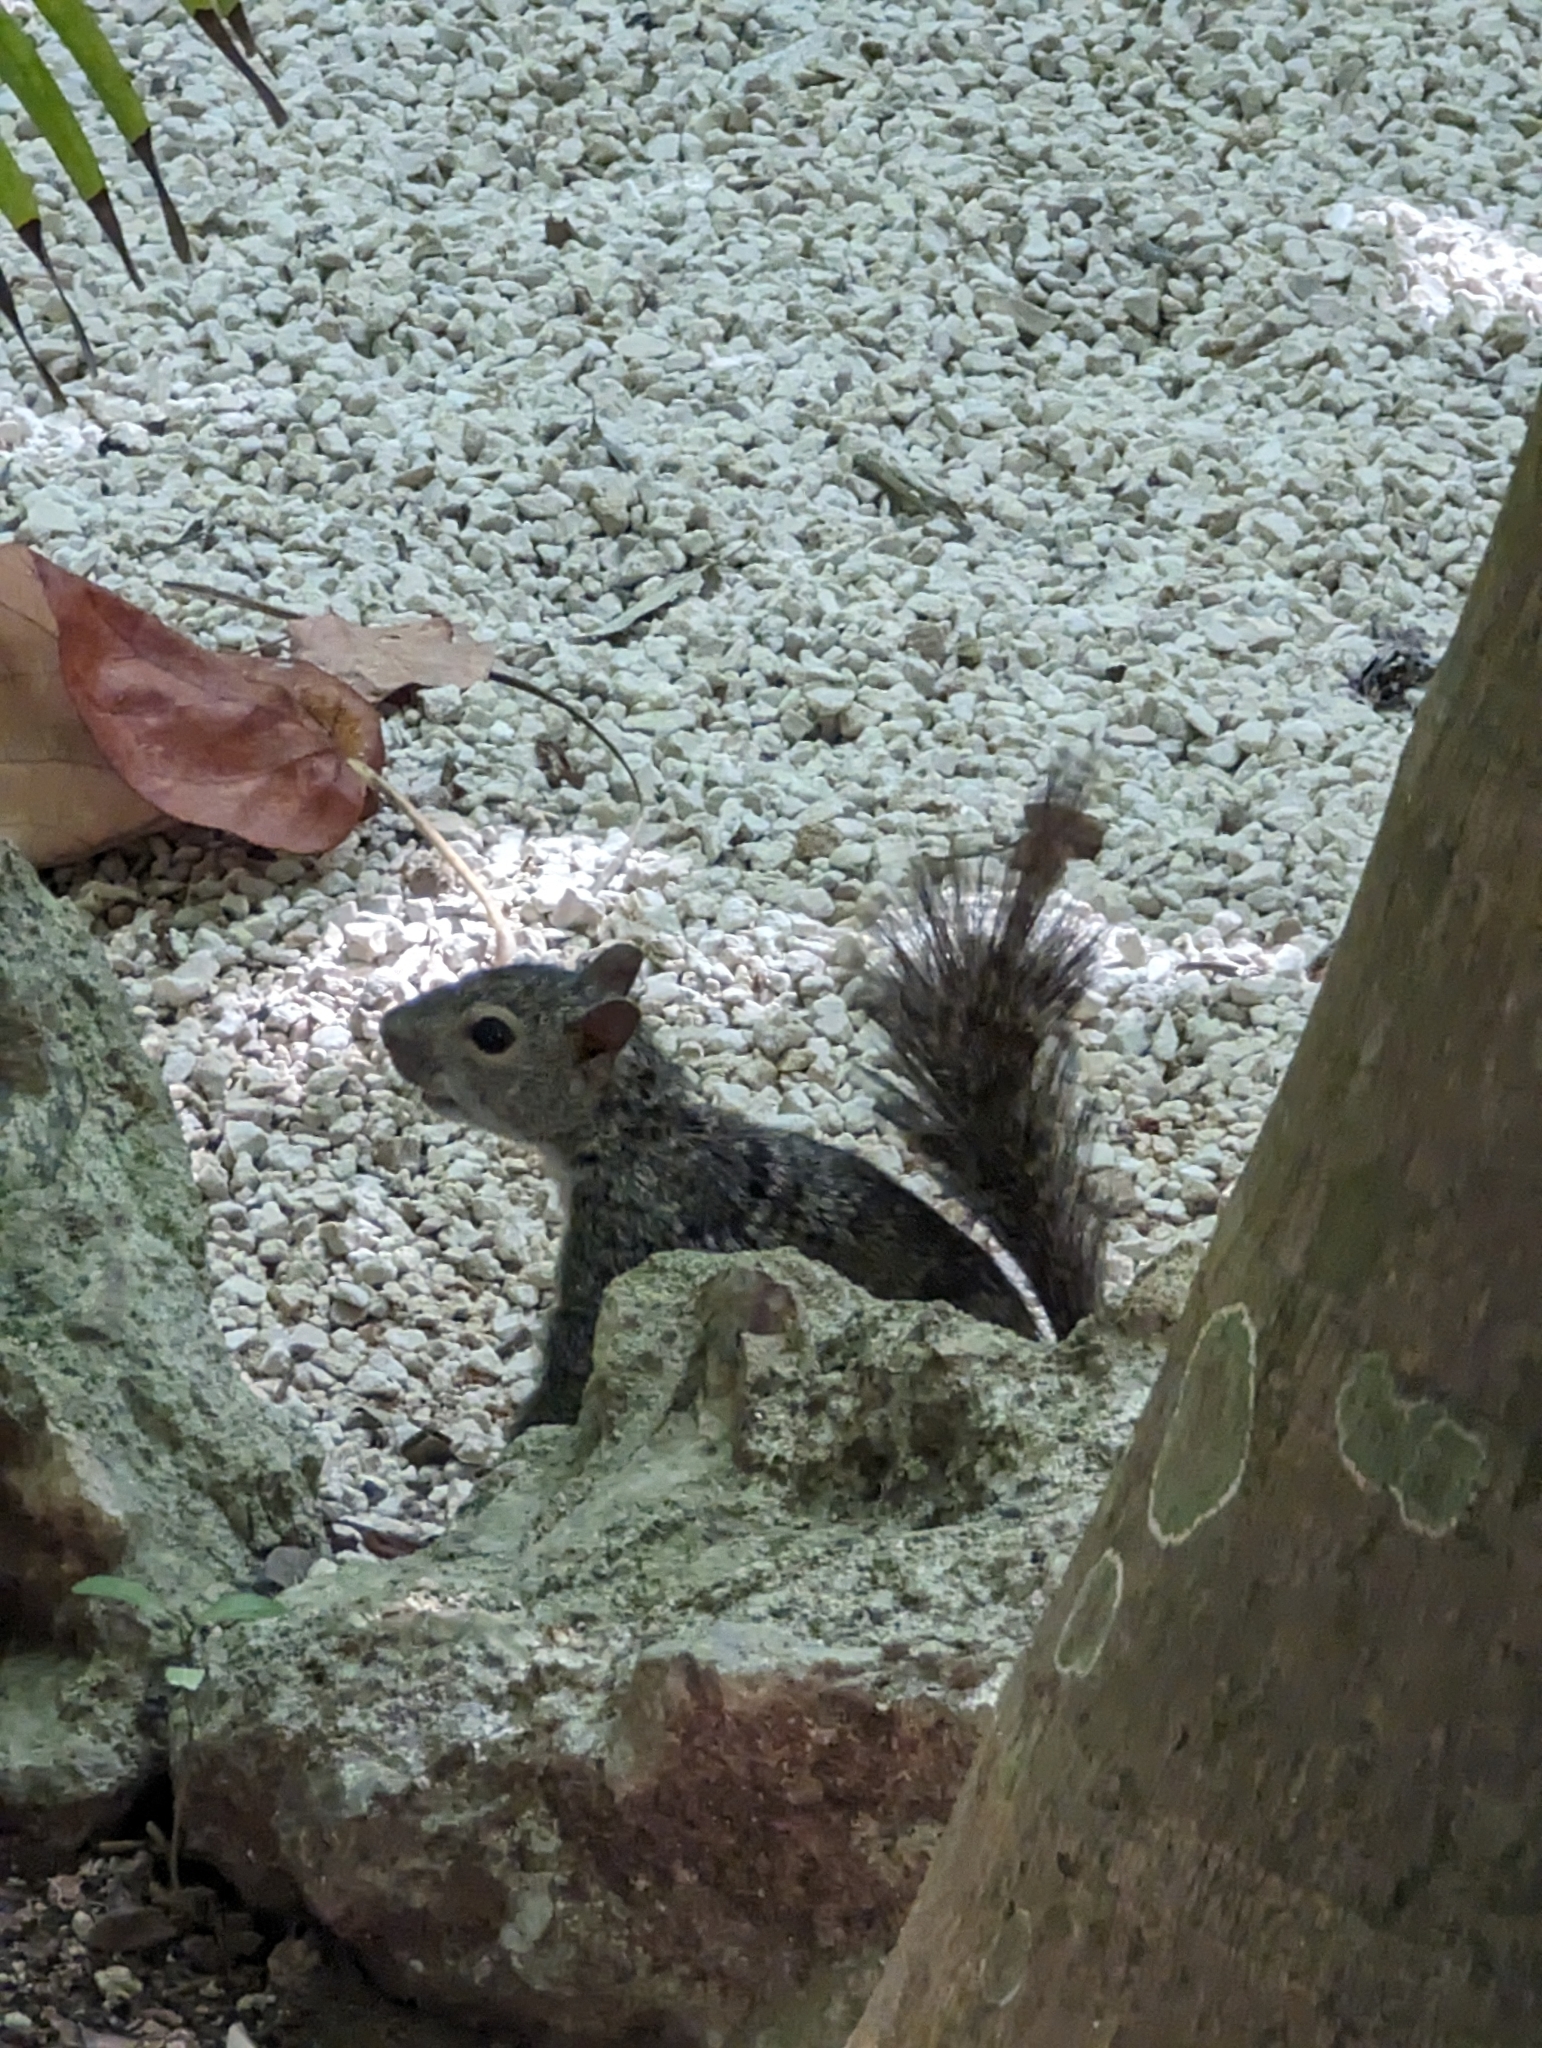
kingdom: Animalia
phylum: Chordata
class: Mammalia
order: Rodentia
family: Sciuridae
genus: Sciurus
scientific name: Sciurus yucatanensis
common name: Yucatan squirrel
